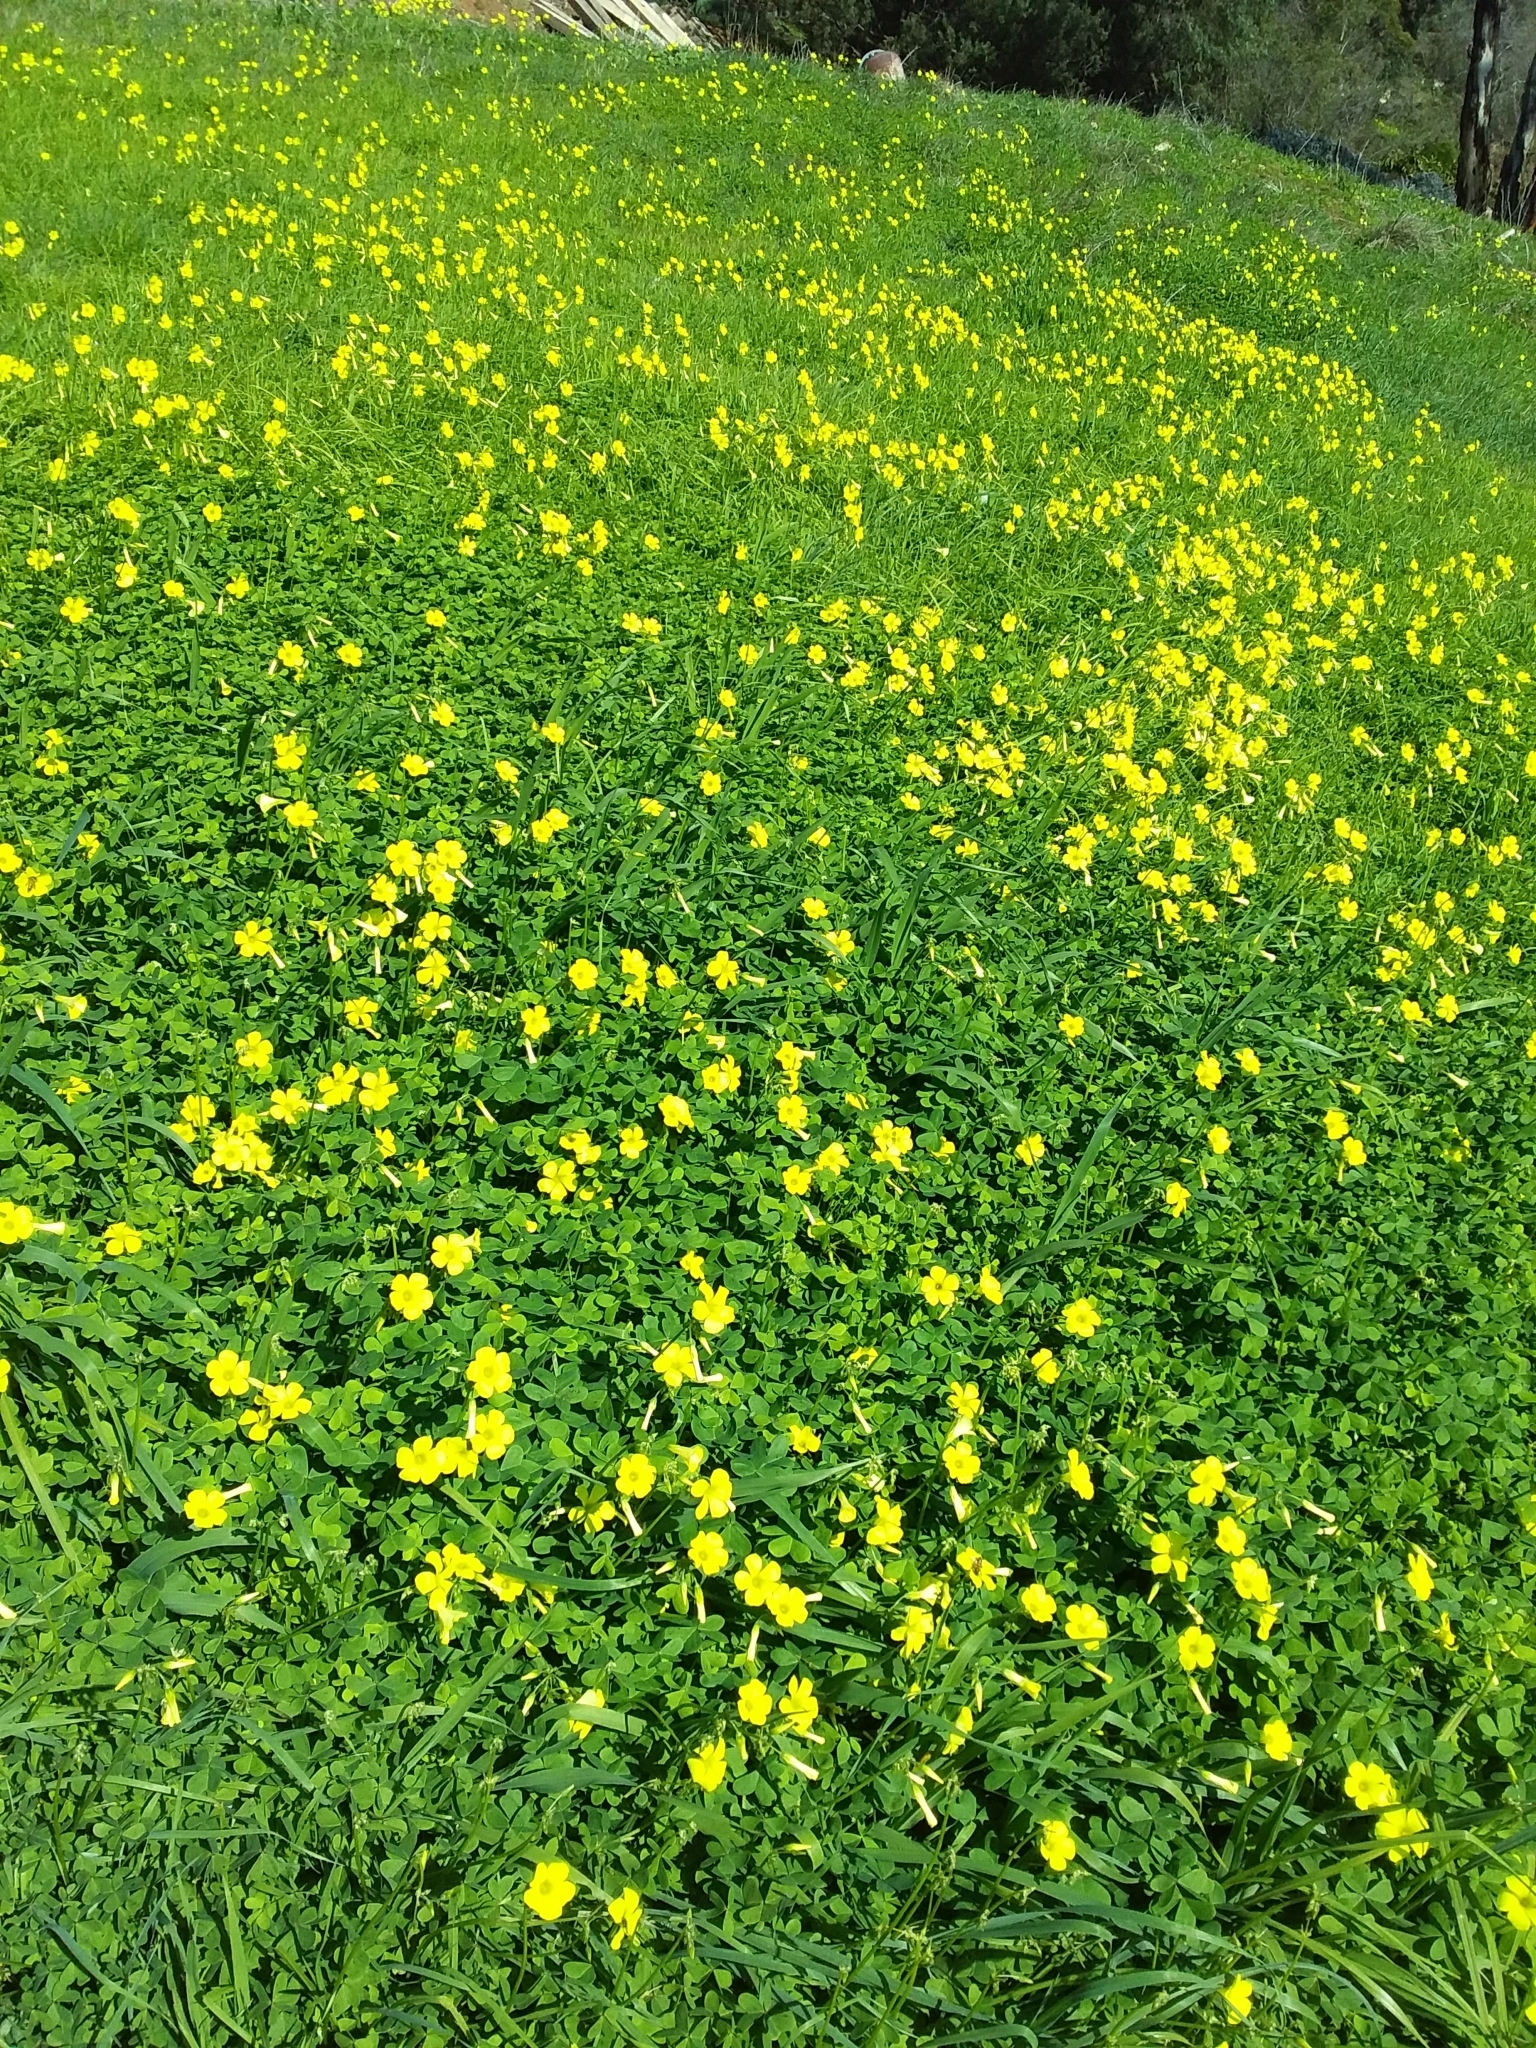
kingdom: Plantae
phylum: Tracheophyta
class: Magnoliopsida
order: Oxalidales
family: Oxalidaceae
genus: Oxalis
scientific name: Oxalis pes-caprae
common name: Bermuda-buttercup
